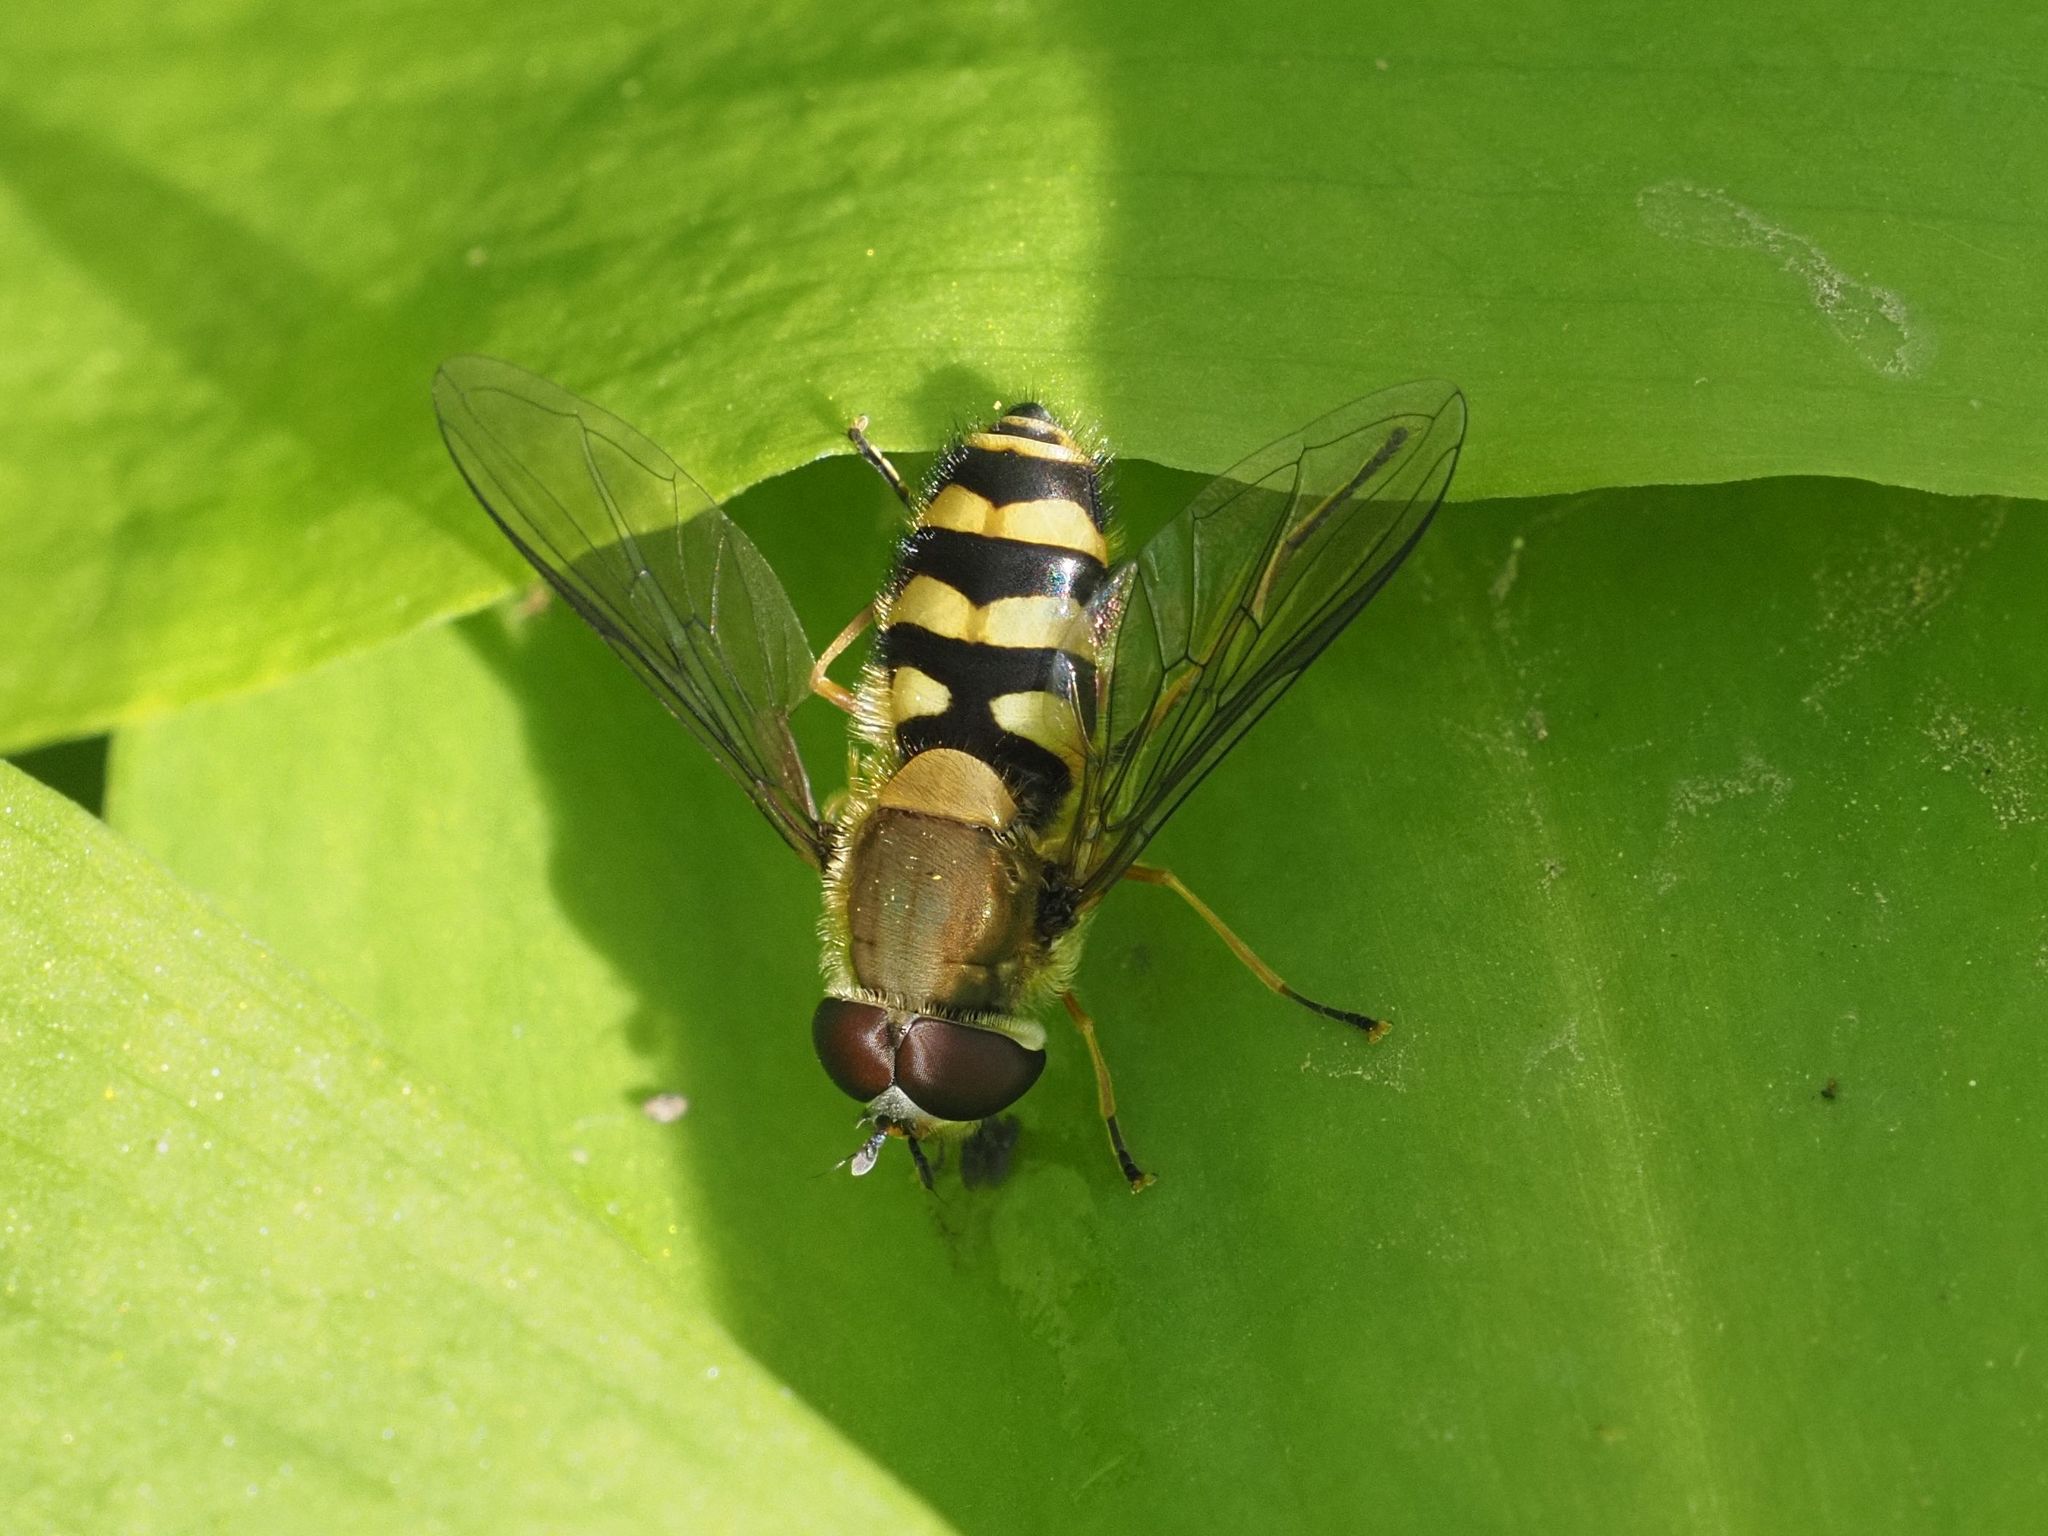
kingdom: Animalia
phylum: Arthropoda
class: Insecta
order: Diptera
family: Syrphidae
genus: Syrphus
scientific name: Syrphus
